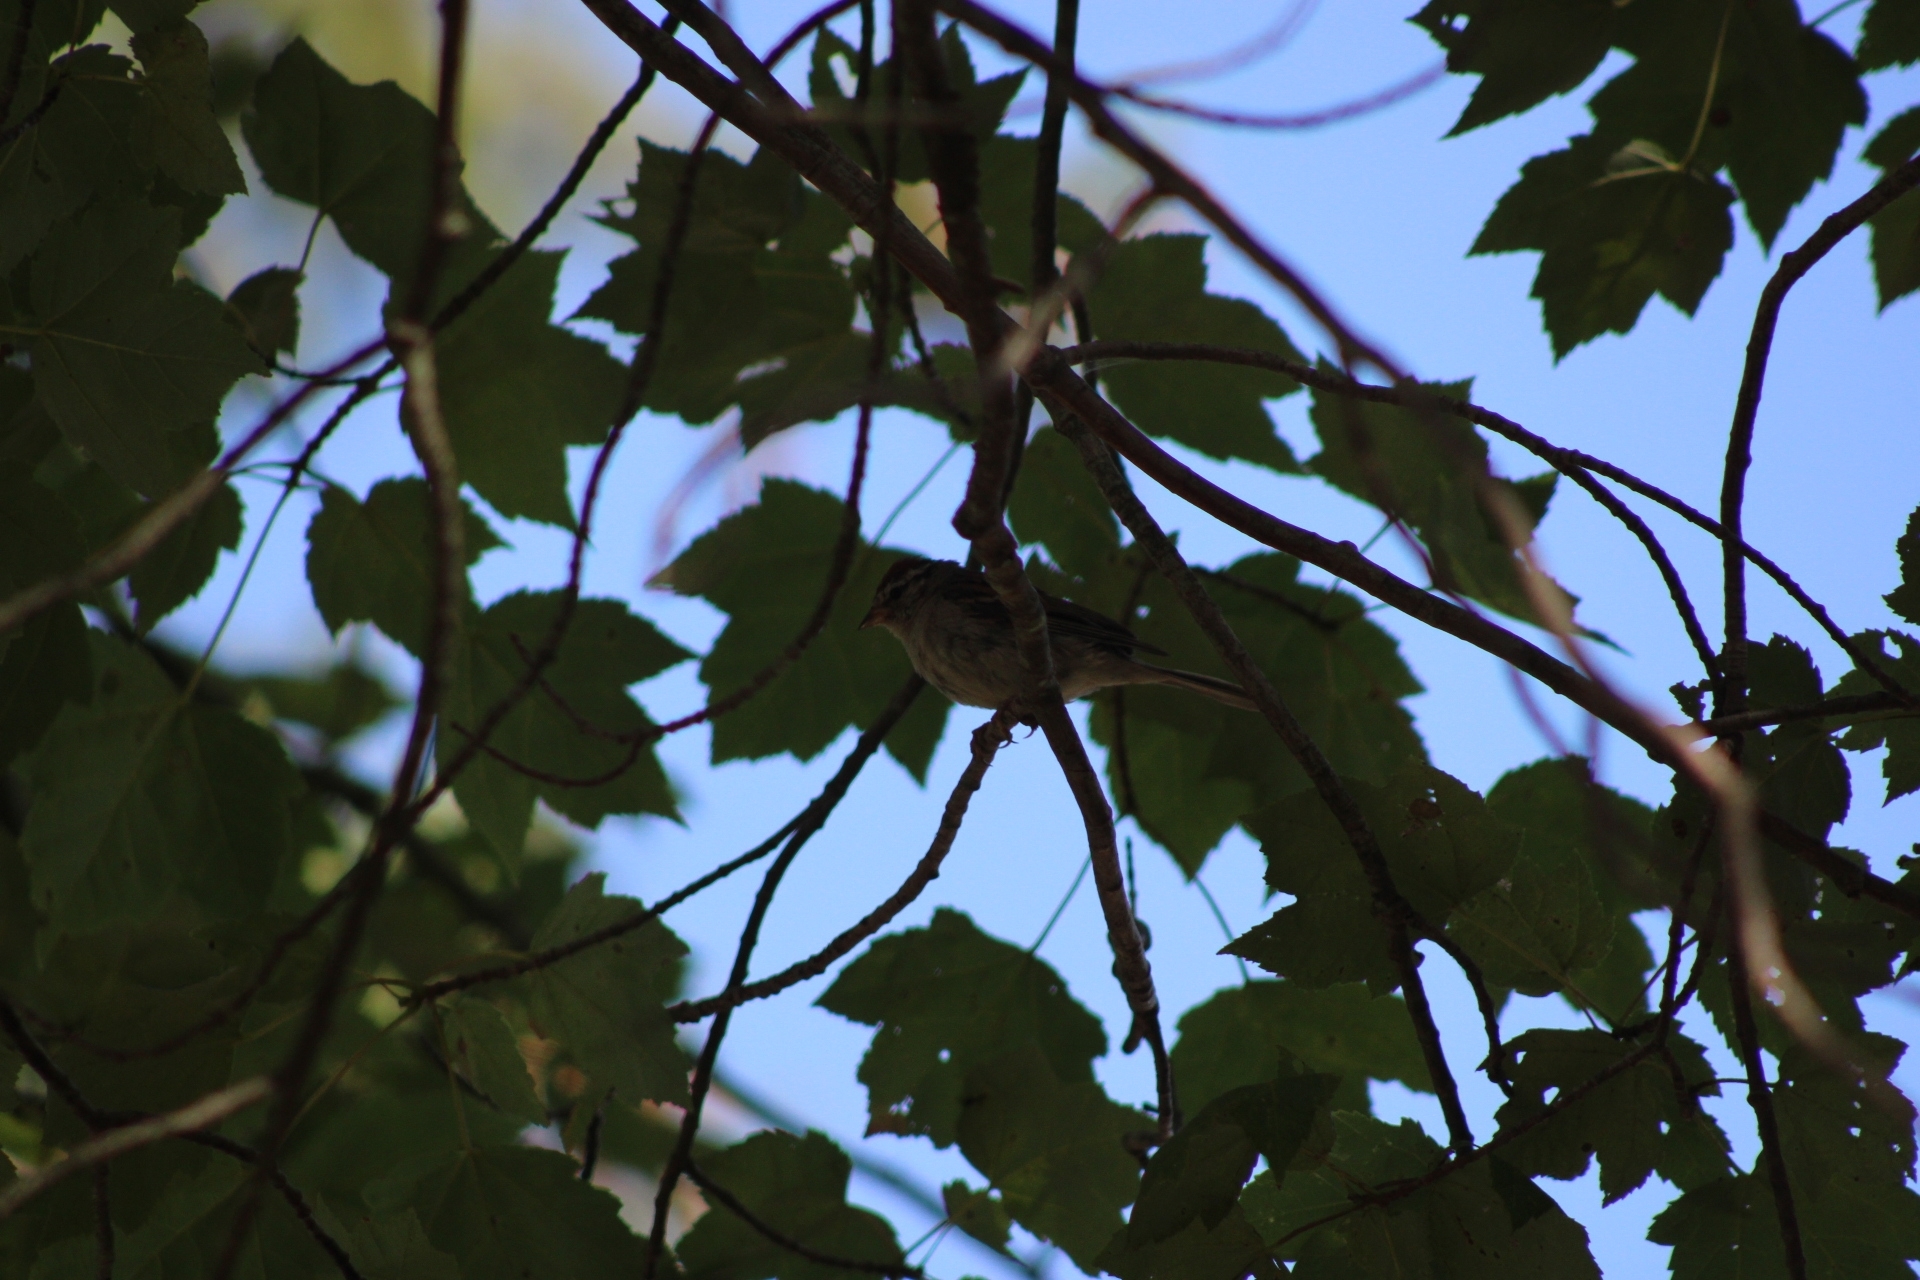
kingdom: Animalia
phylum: Chordata
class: Aves
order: Passeriformes
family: Passerellidae
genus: Spizella
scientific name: Spizella passerina
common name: Chipping sparrow
